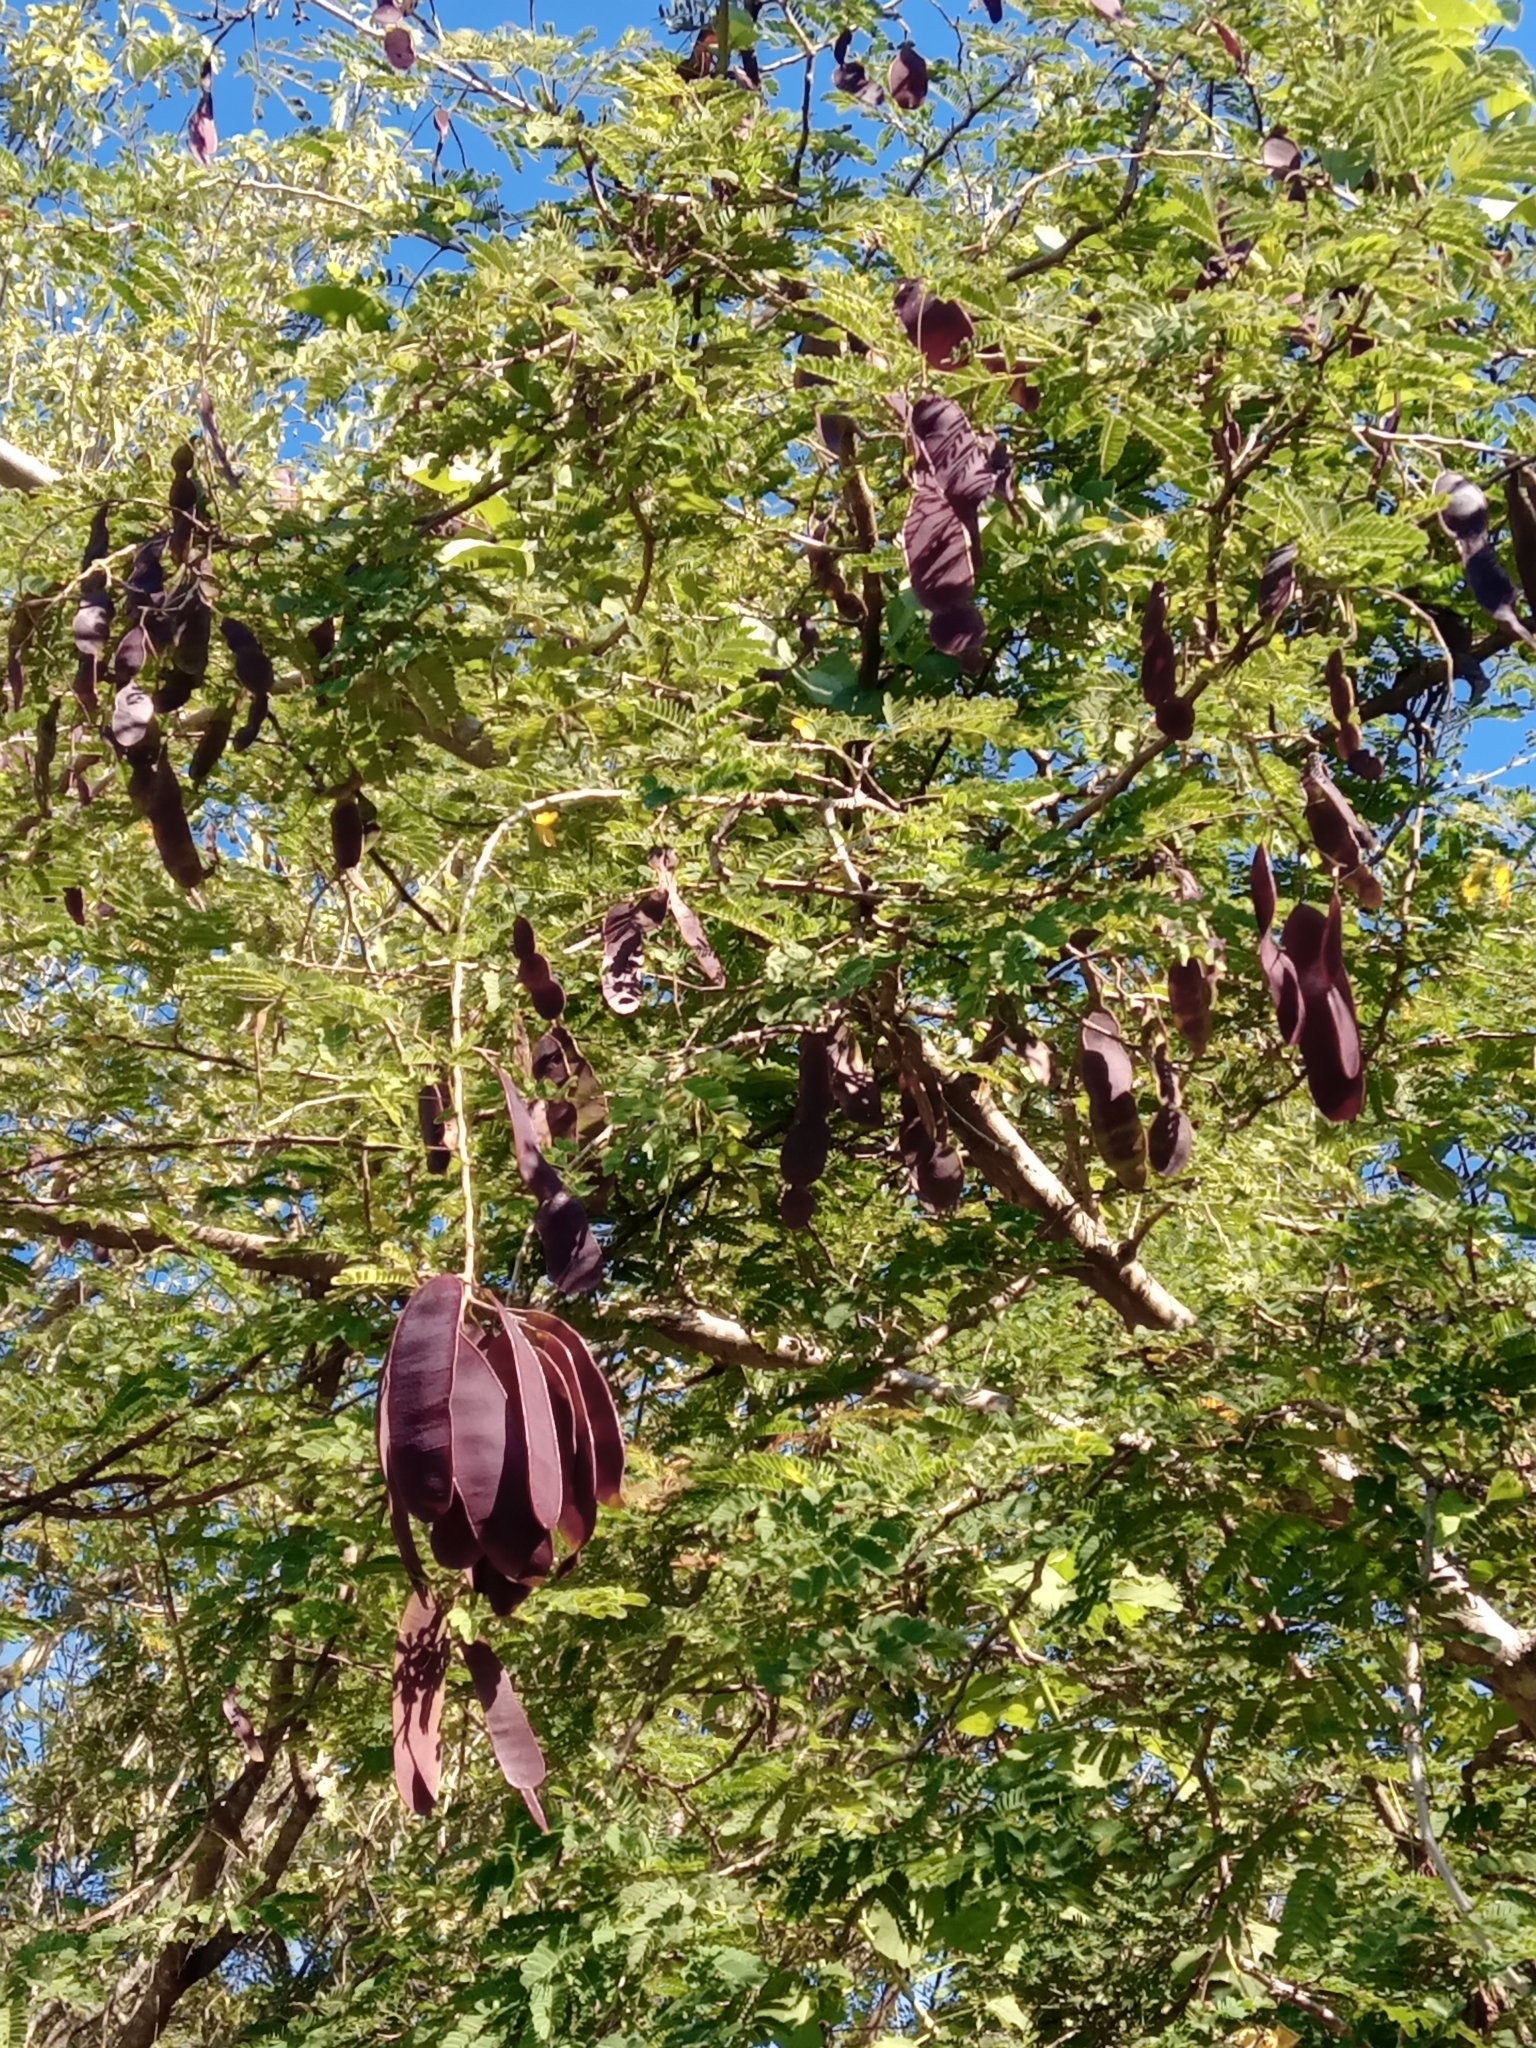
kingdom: Plantae
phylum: Tracheophyta
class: Magnoliopsida
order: Fabales
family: Fabaceae
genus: Senegalia
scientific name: Senegalia gaumeri
